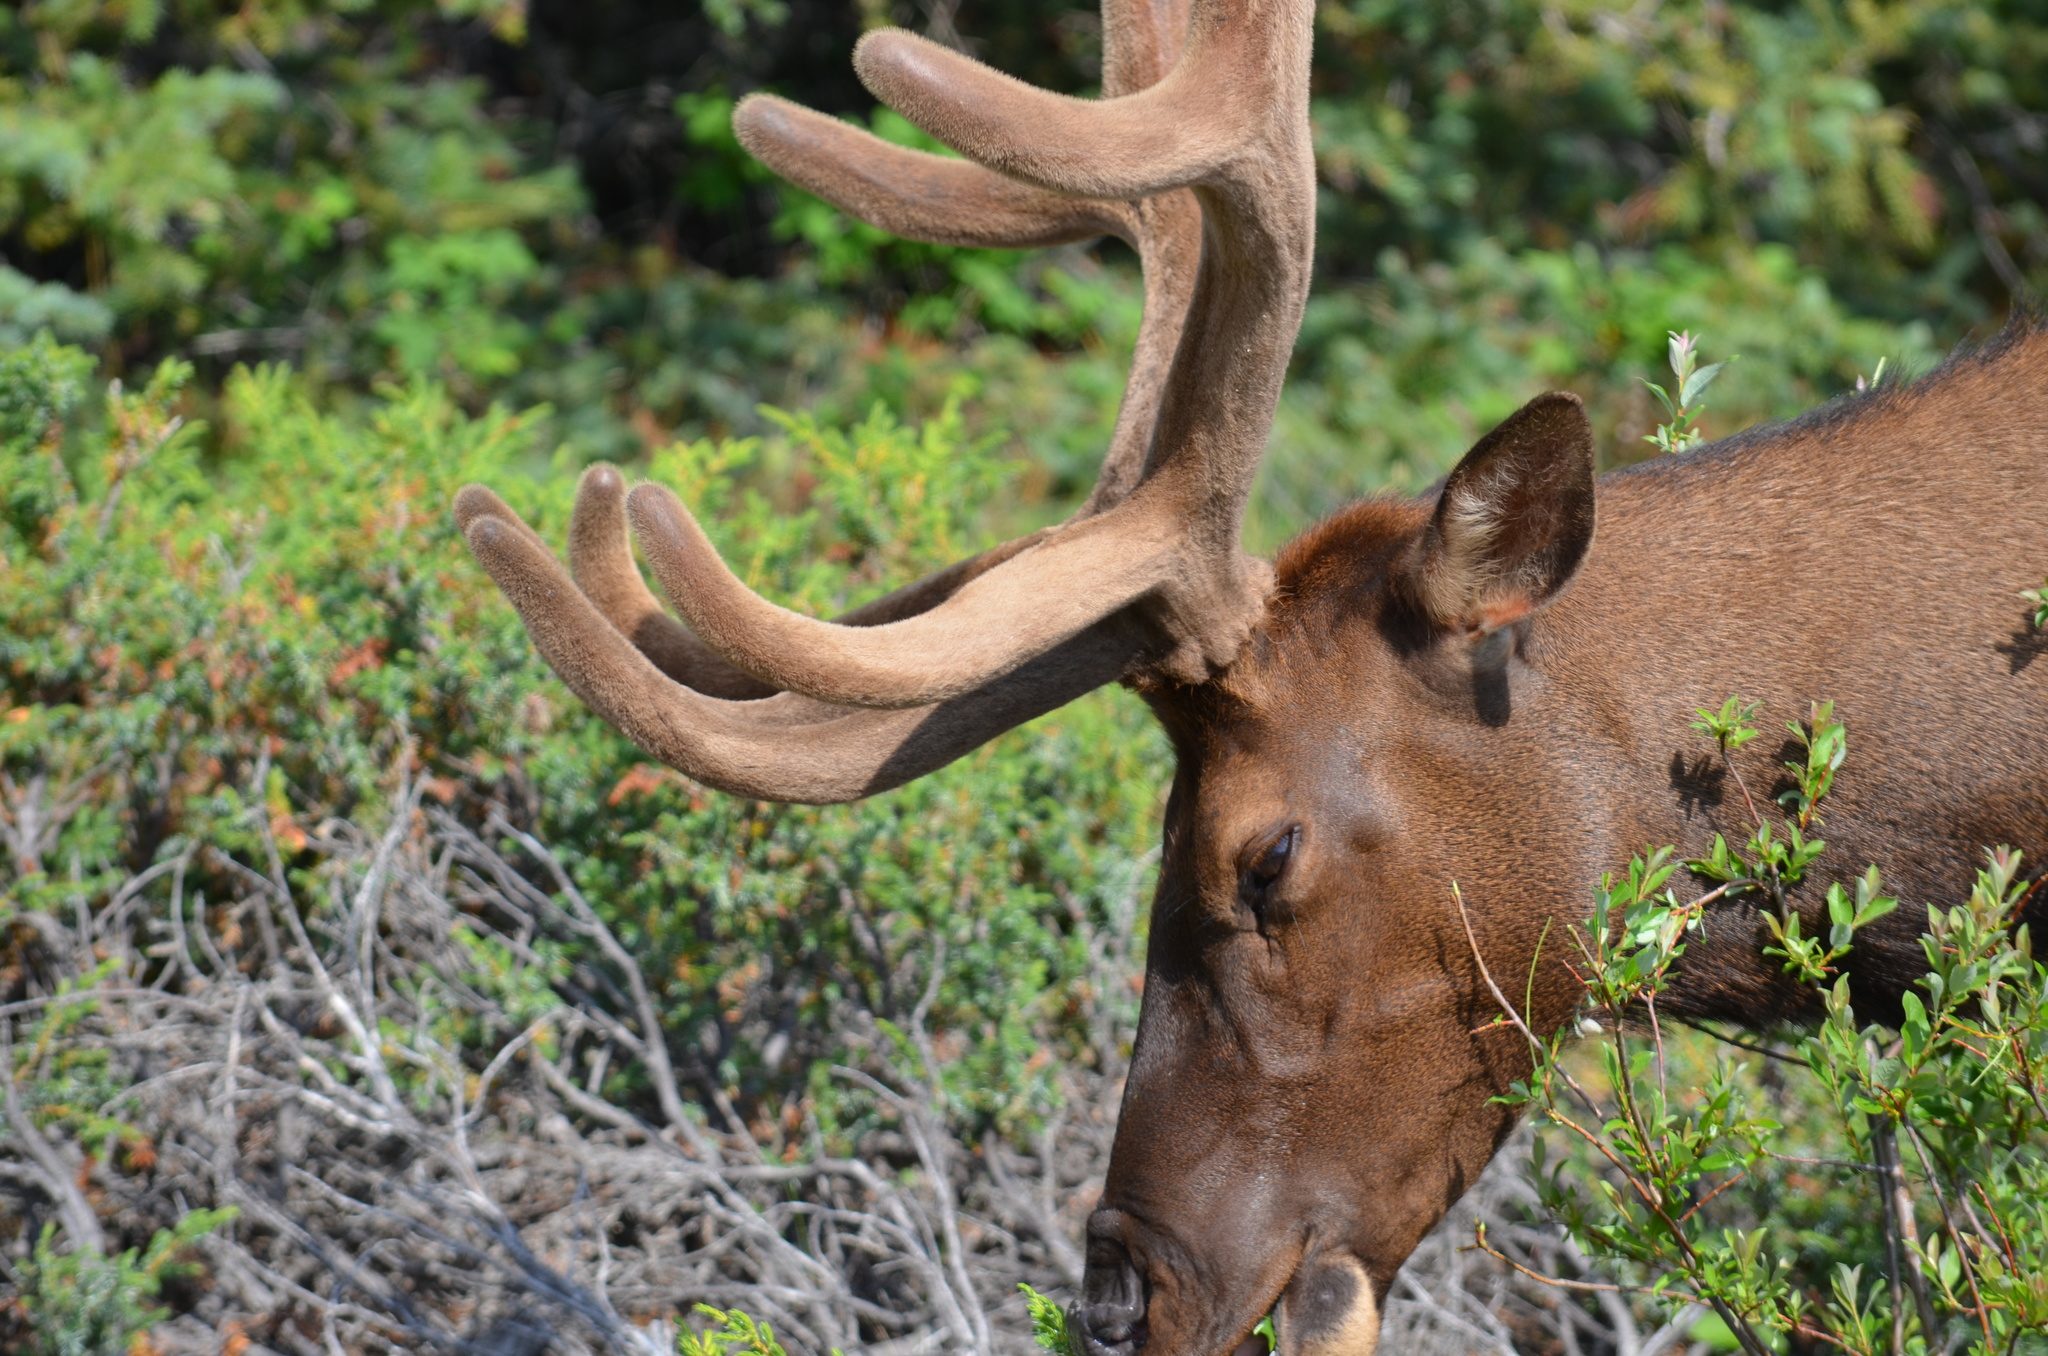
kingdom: Animalia
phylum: Chordata
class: Mammalia
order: Artiodactyla
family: Cervidae
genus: Cervus
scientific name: Cervus elaphus
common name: Red deer
